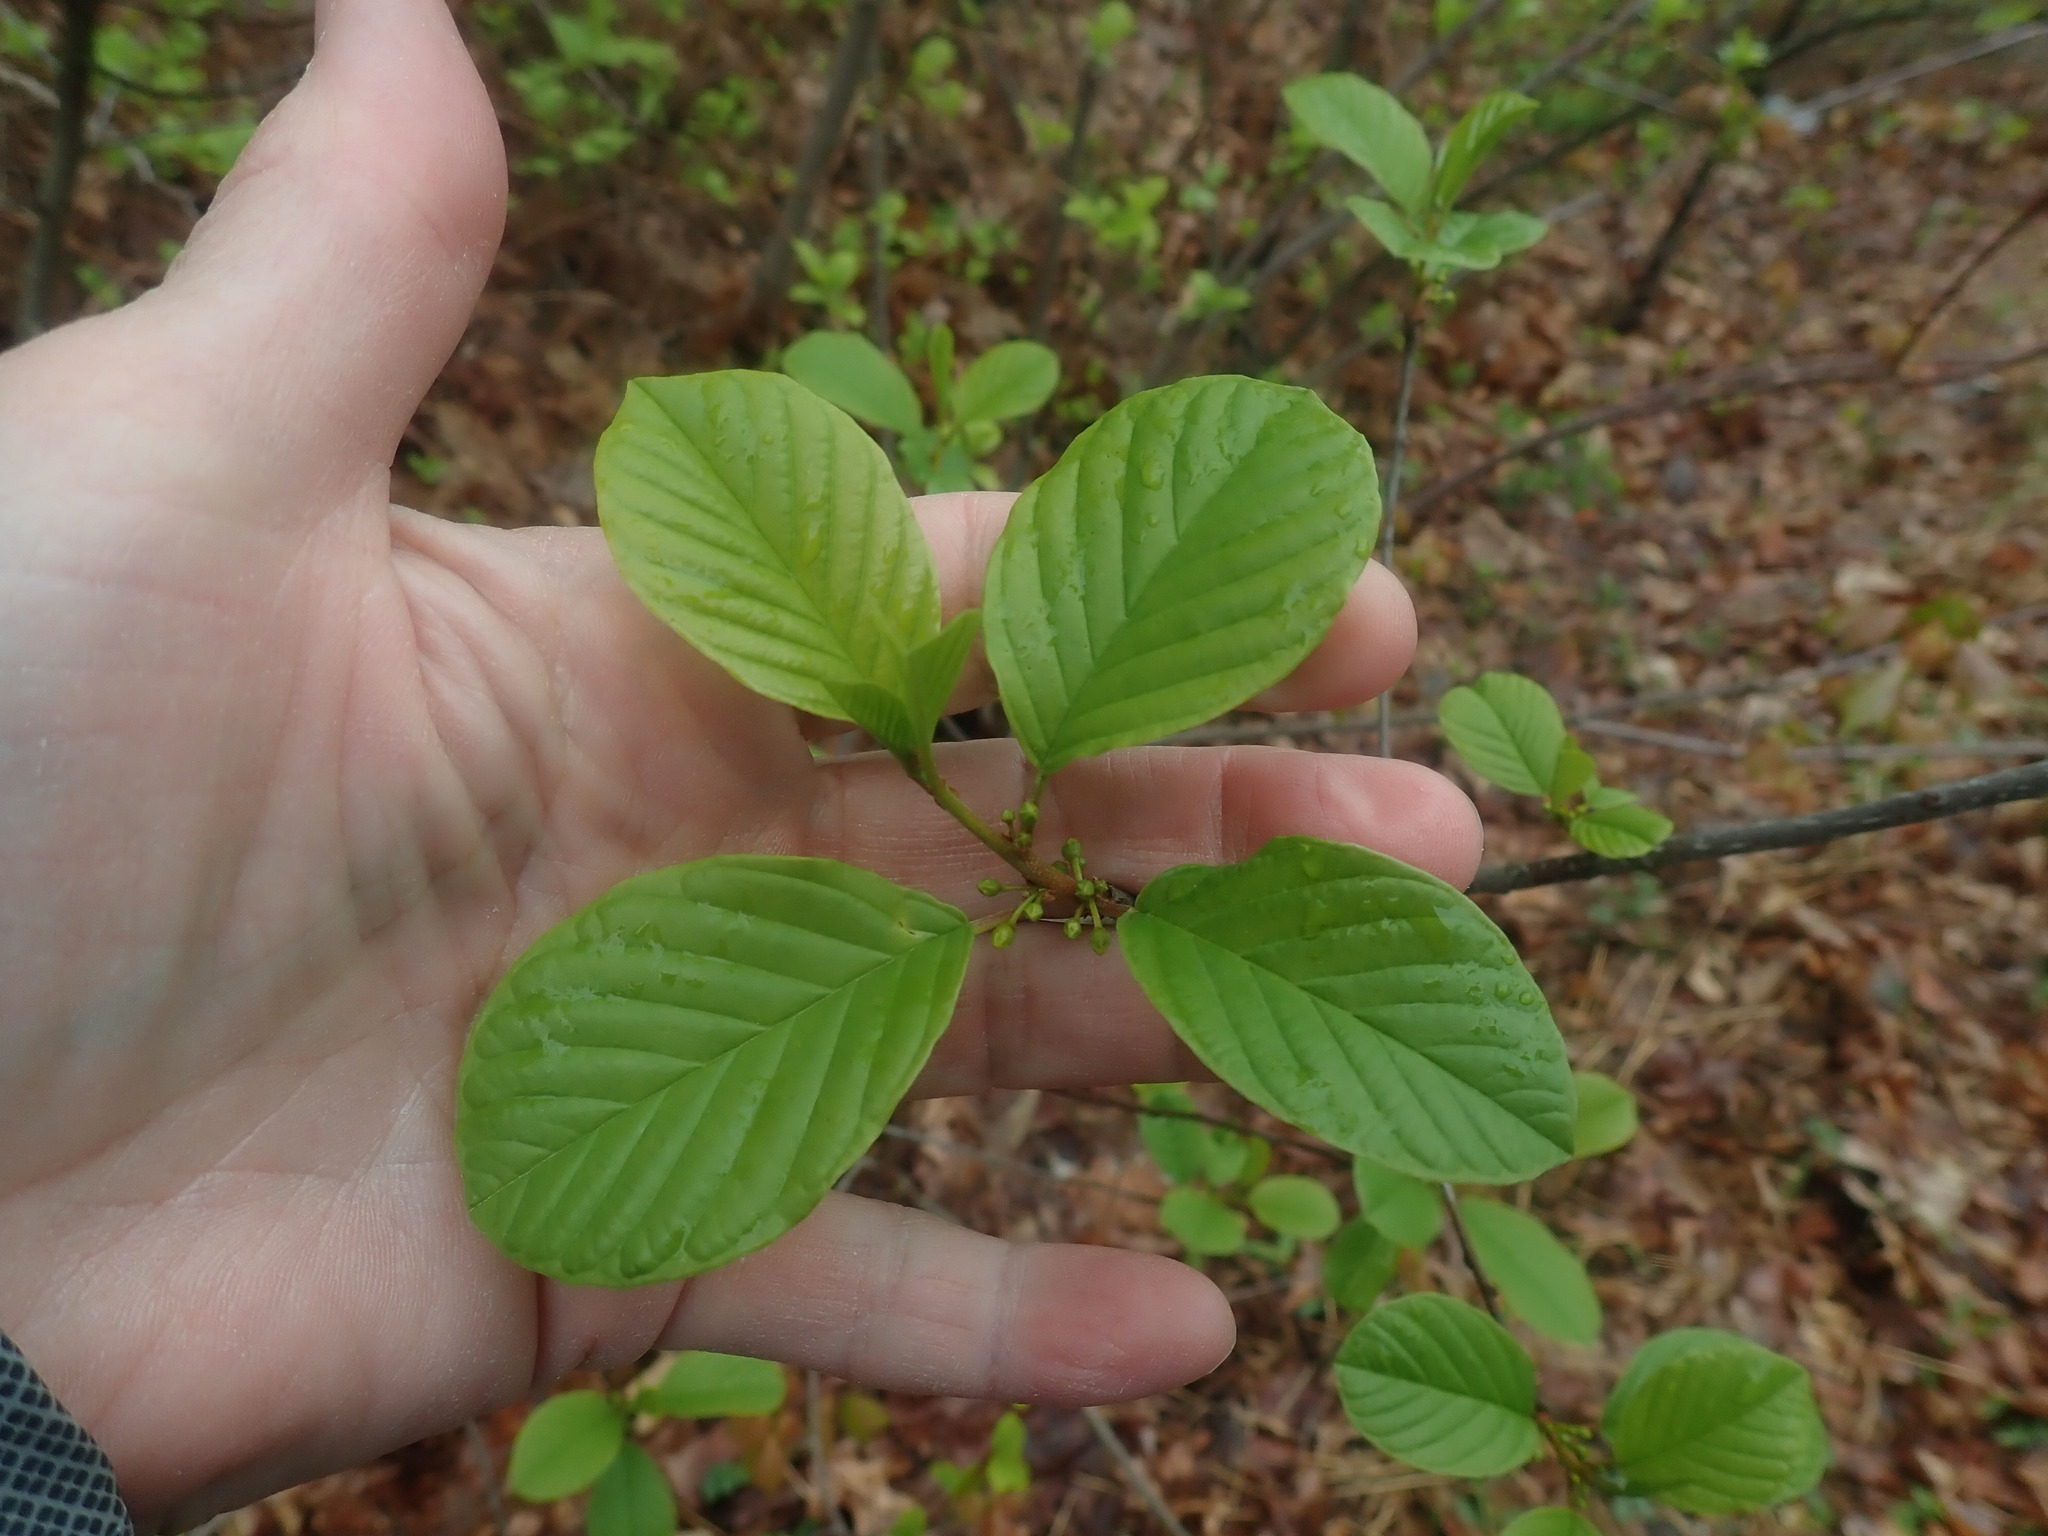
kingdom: Plantae
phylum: Tracheophyta
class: Magnoliopsida
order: Rosales
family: Rhamnaceae
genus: Frangula
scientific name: Frangula alnus
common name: Alder buckthorn
